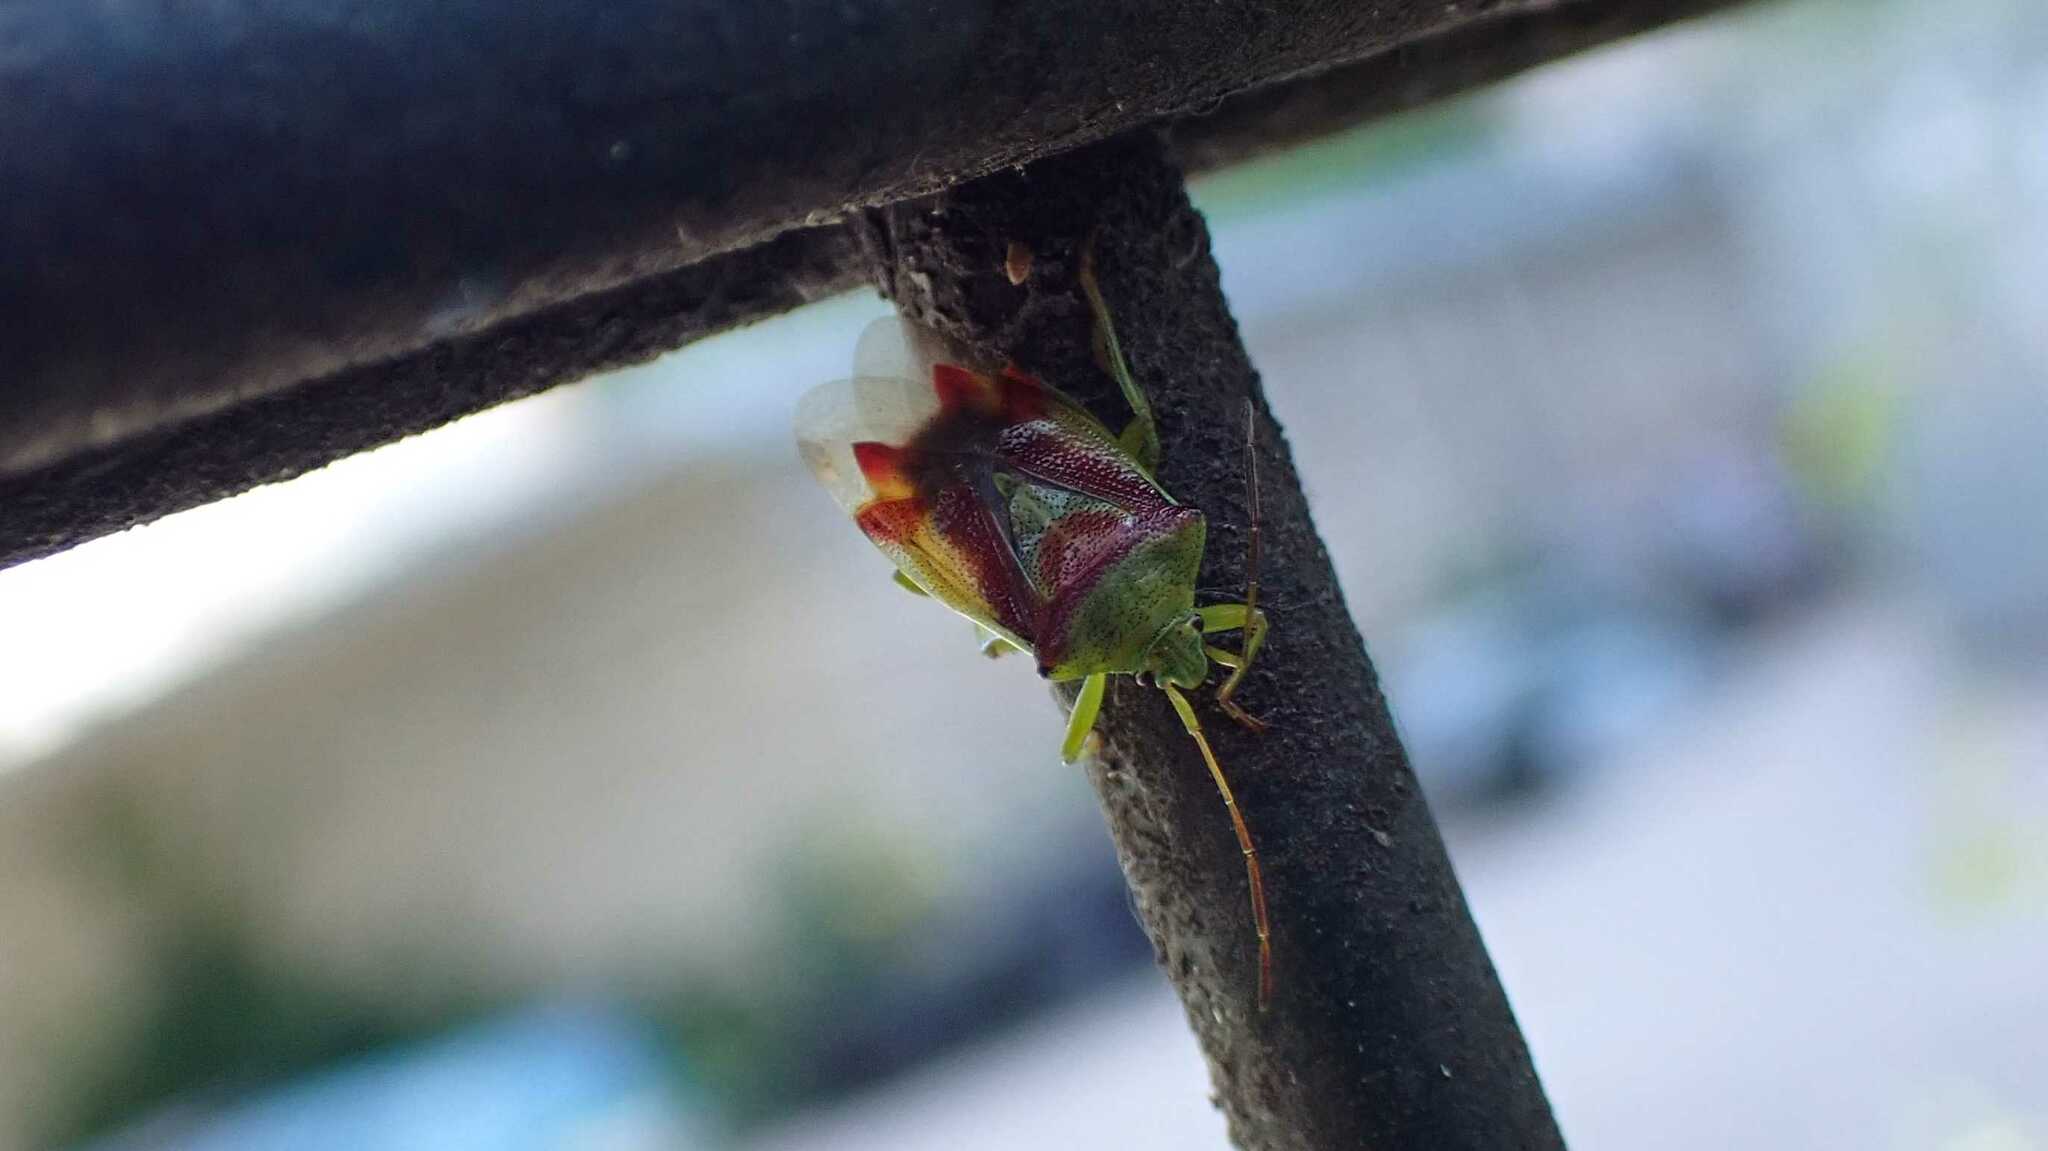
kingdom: Animalia
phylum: Arthropoda
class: Insecta
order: Hemiptera
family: Acanthosomatidae
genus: Elasmostethus
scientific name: Elasmostethus
